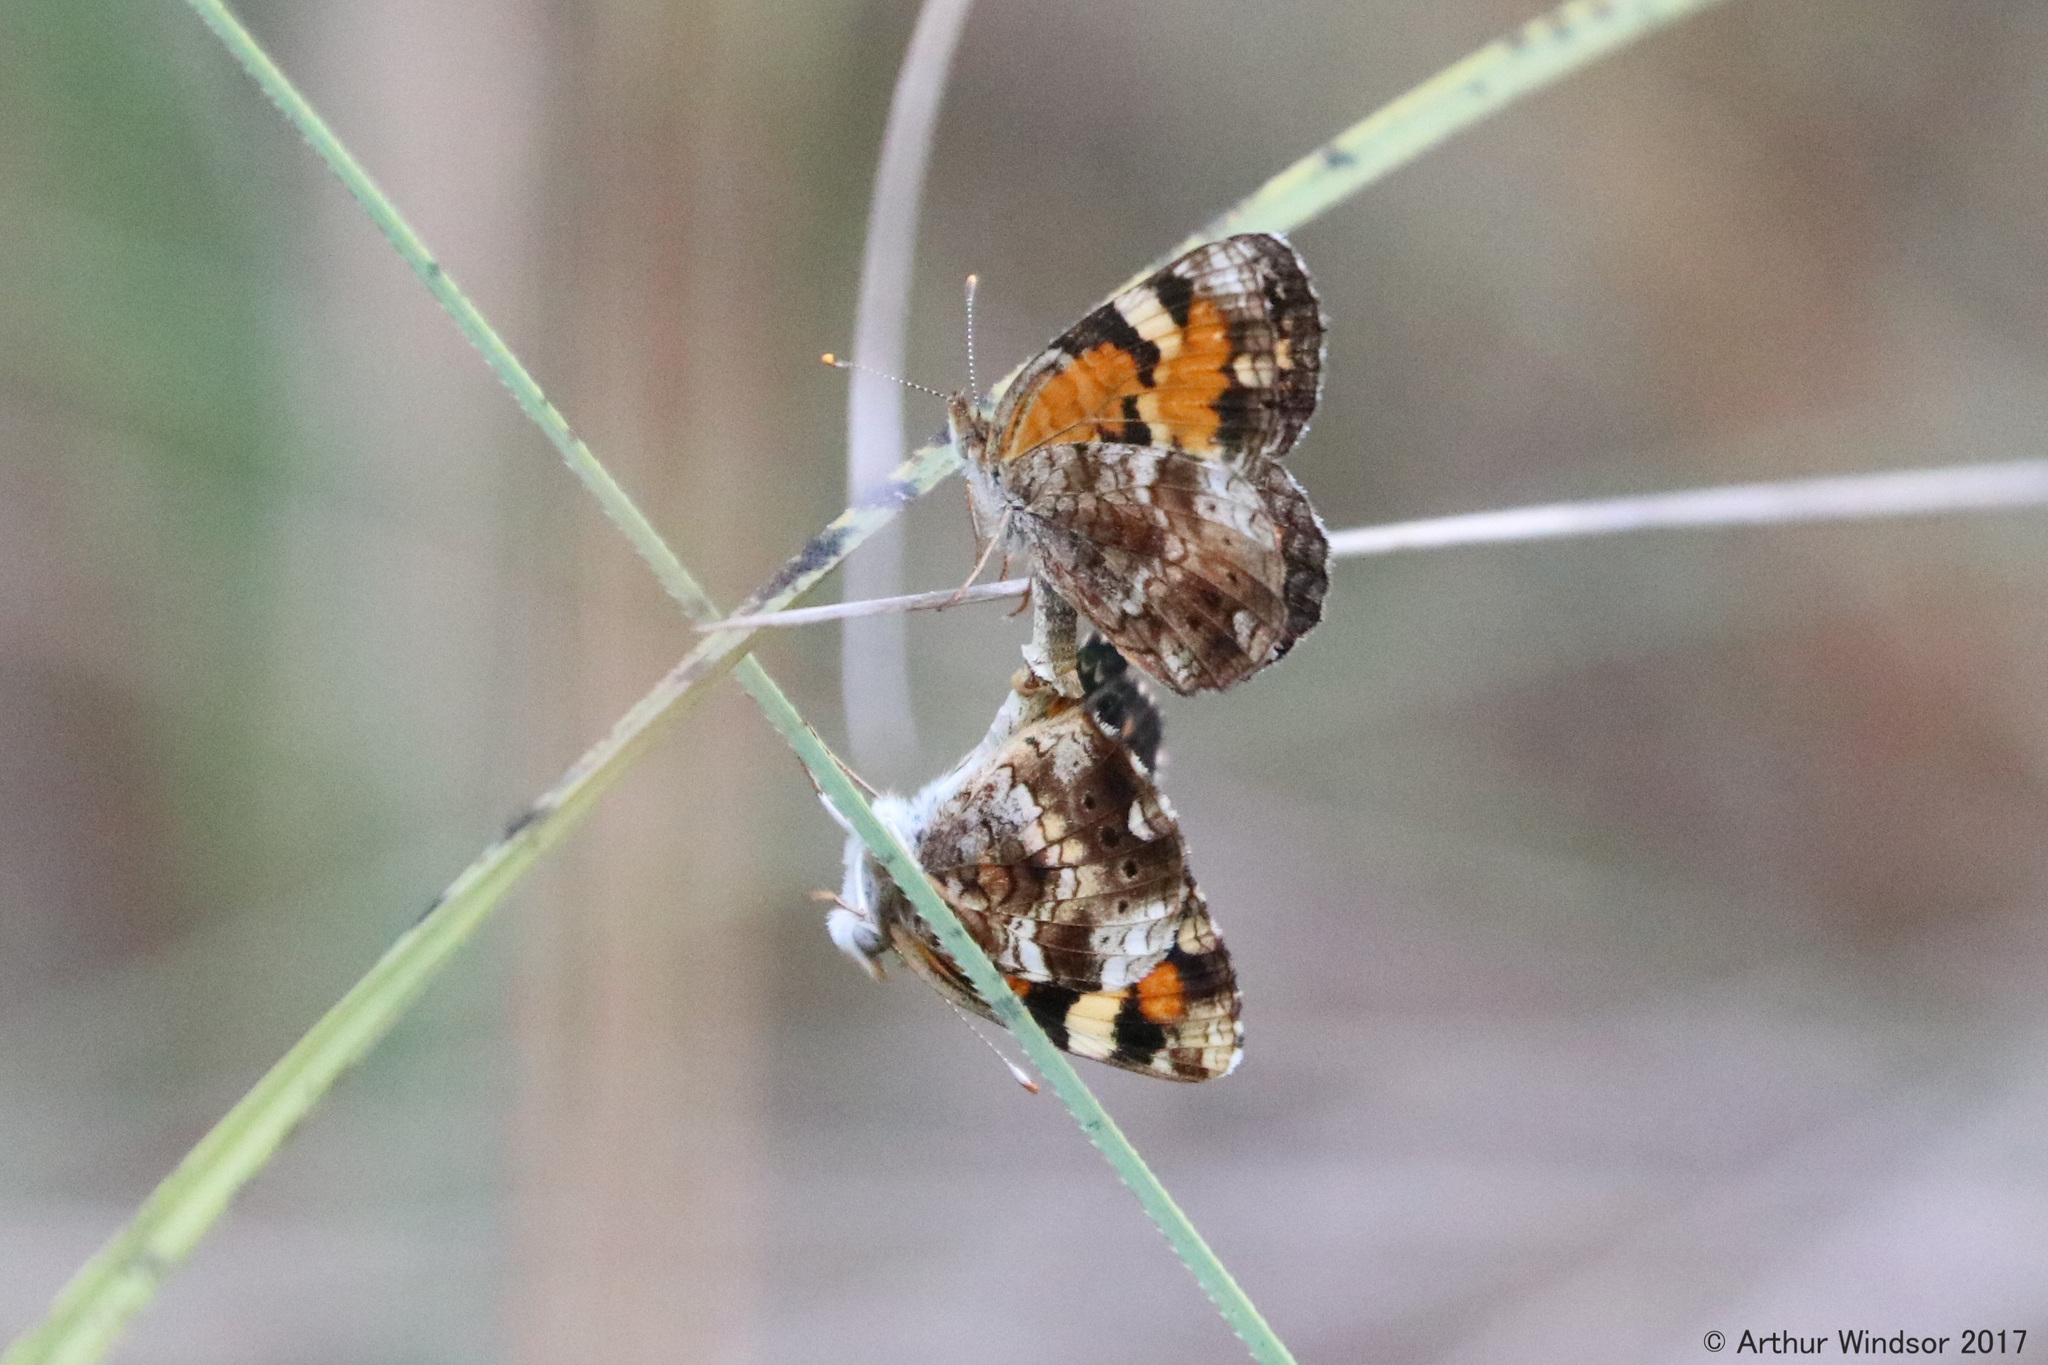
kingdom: Animalia
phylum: Arthropoda
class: Insecta
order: Lepidoptera
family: Nymphalidae
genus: Phyciodes
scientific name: Phyciodes phaon
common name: Phaon crescent
